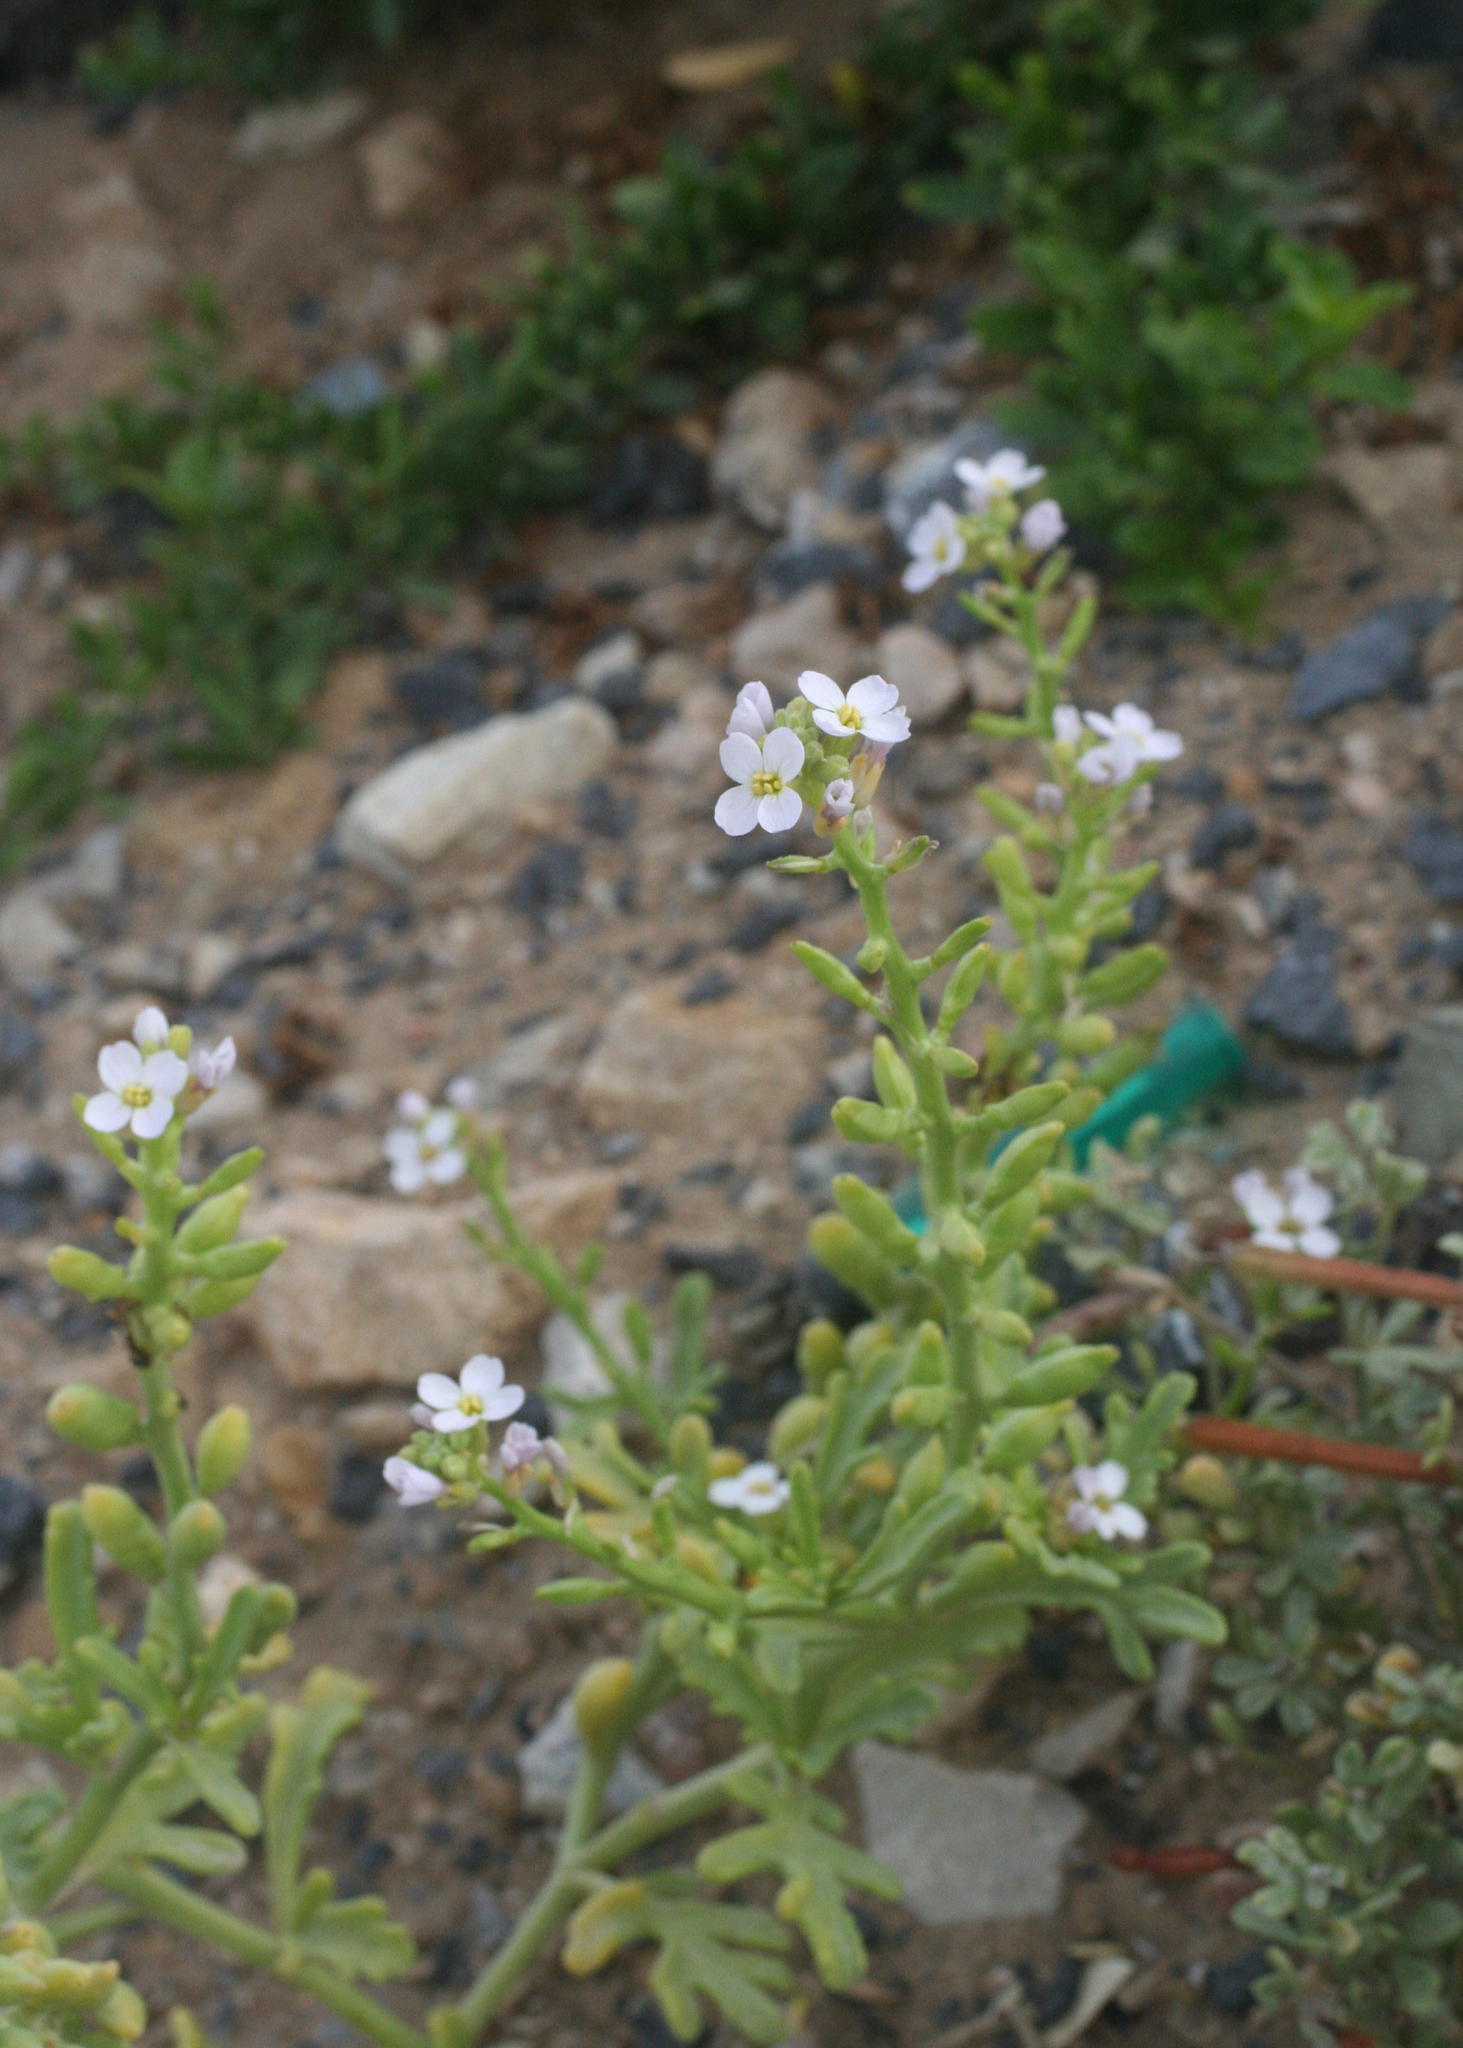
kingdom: Plantae
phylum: Tracheophyta
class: Magnoliopsida
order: Brassicales
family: Brassicaceae
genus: Cakile
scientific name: Cakile maritima
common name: Sea rocket
